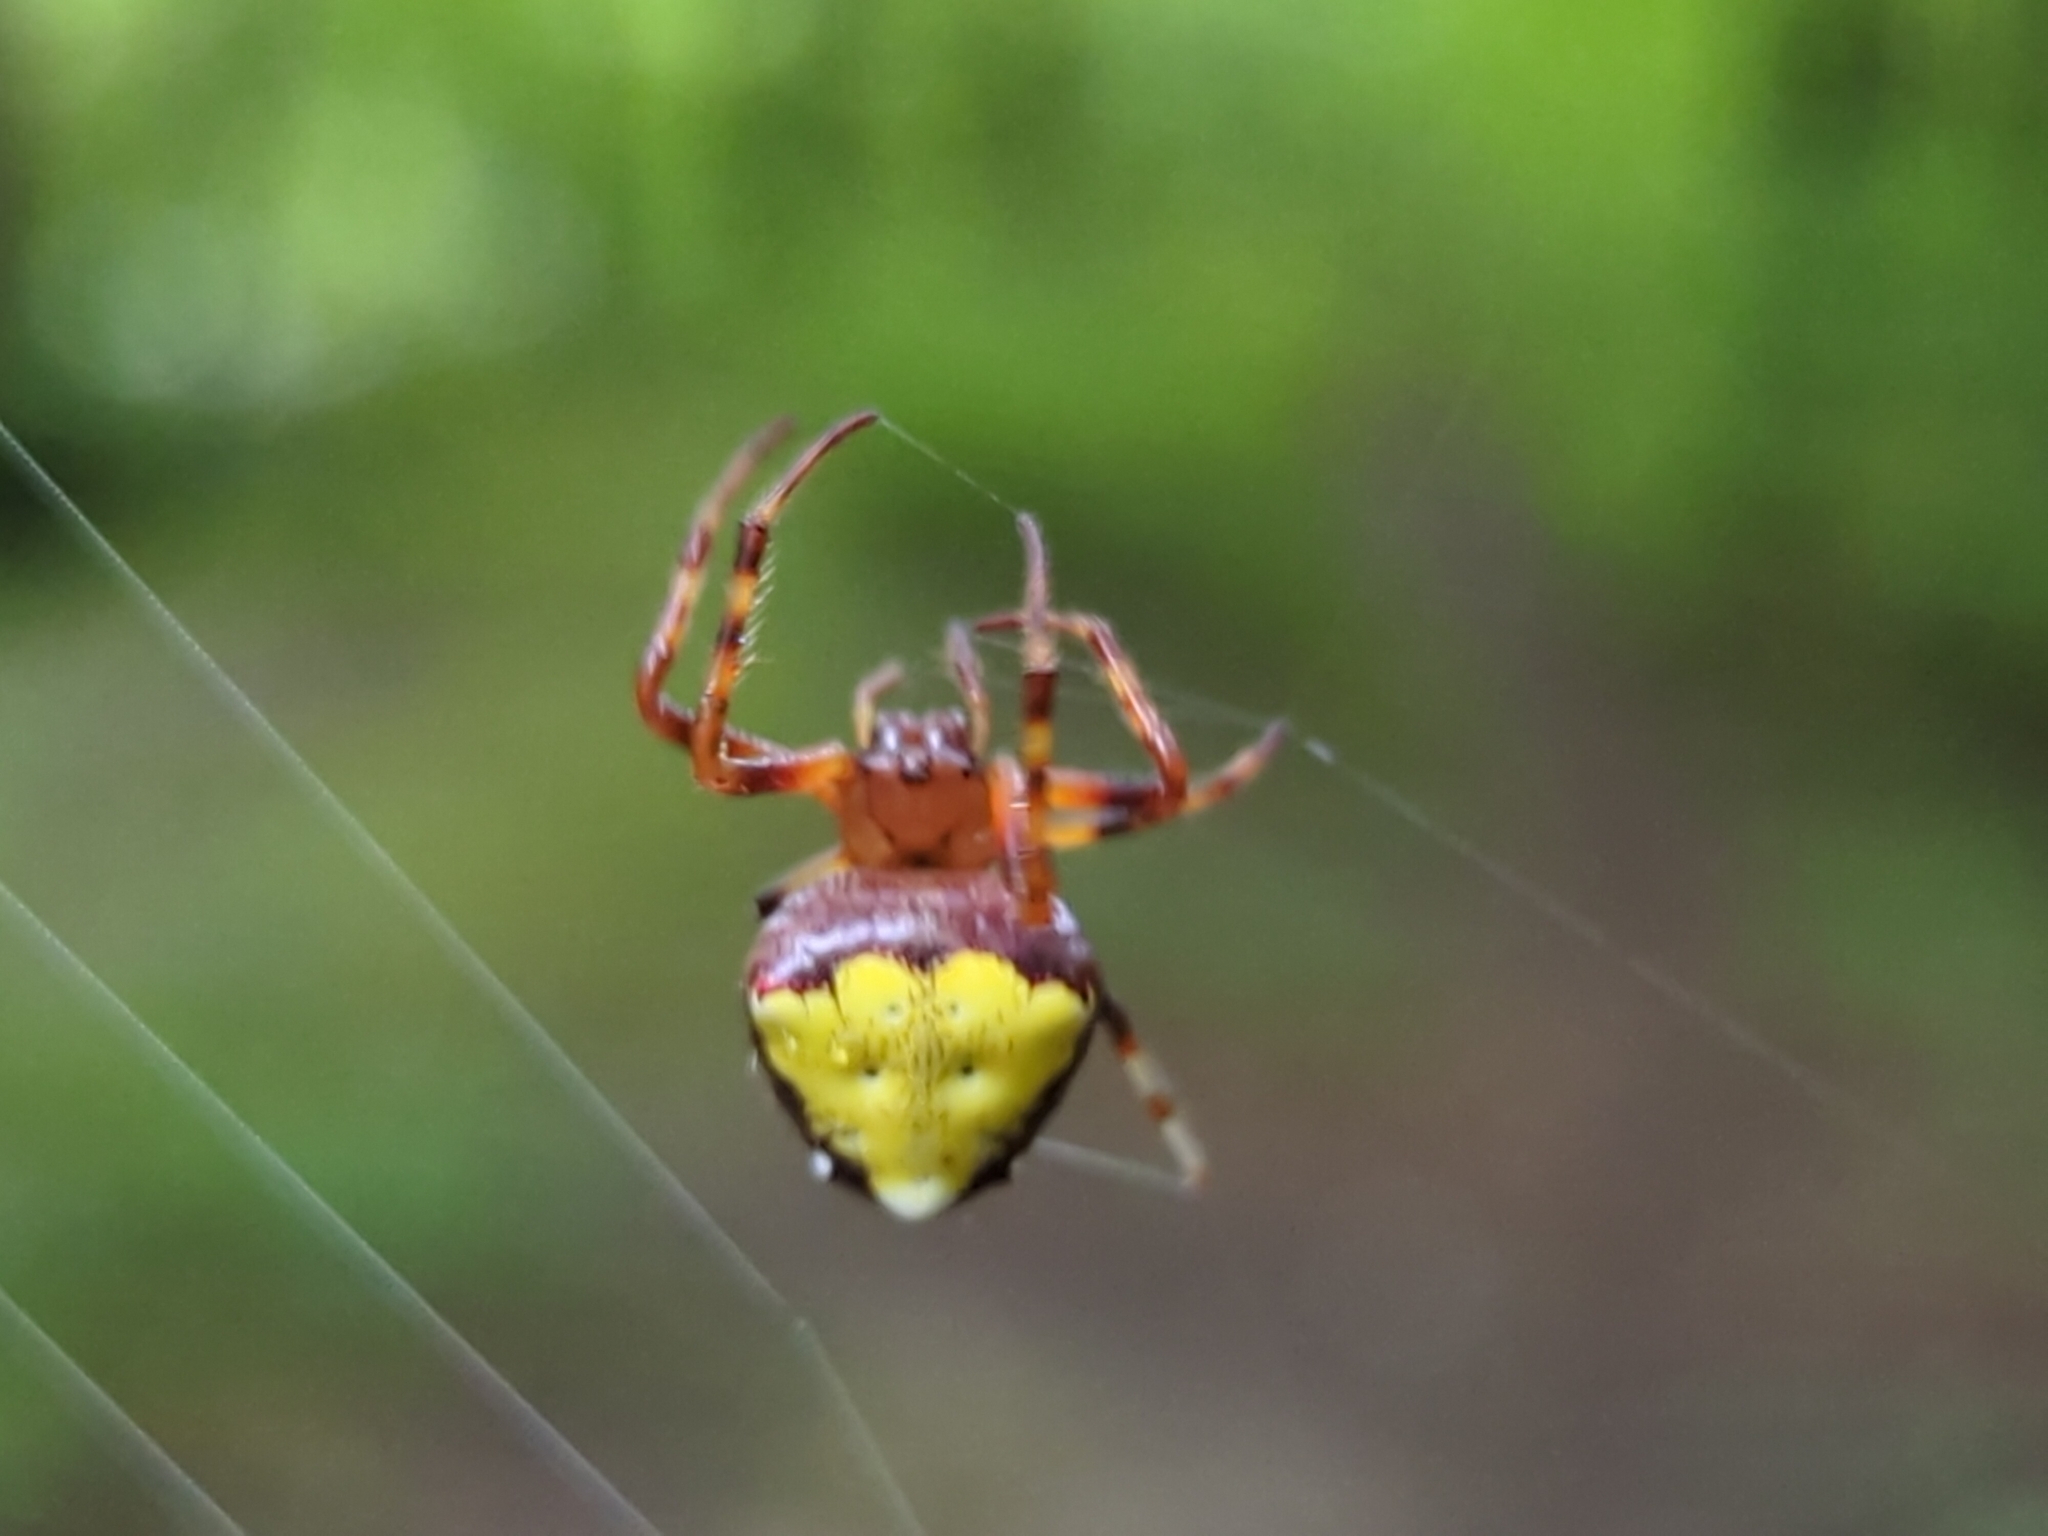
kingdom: Animalia
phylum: Arthropoda
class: Arachnida
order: Araneae
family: Araneidae
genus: Verrucosa
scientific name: Verrucosa arenata
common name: Orb weavers
